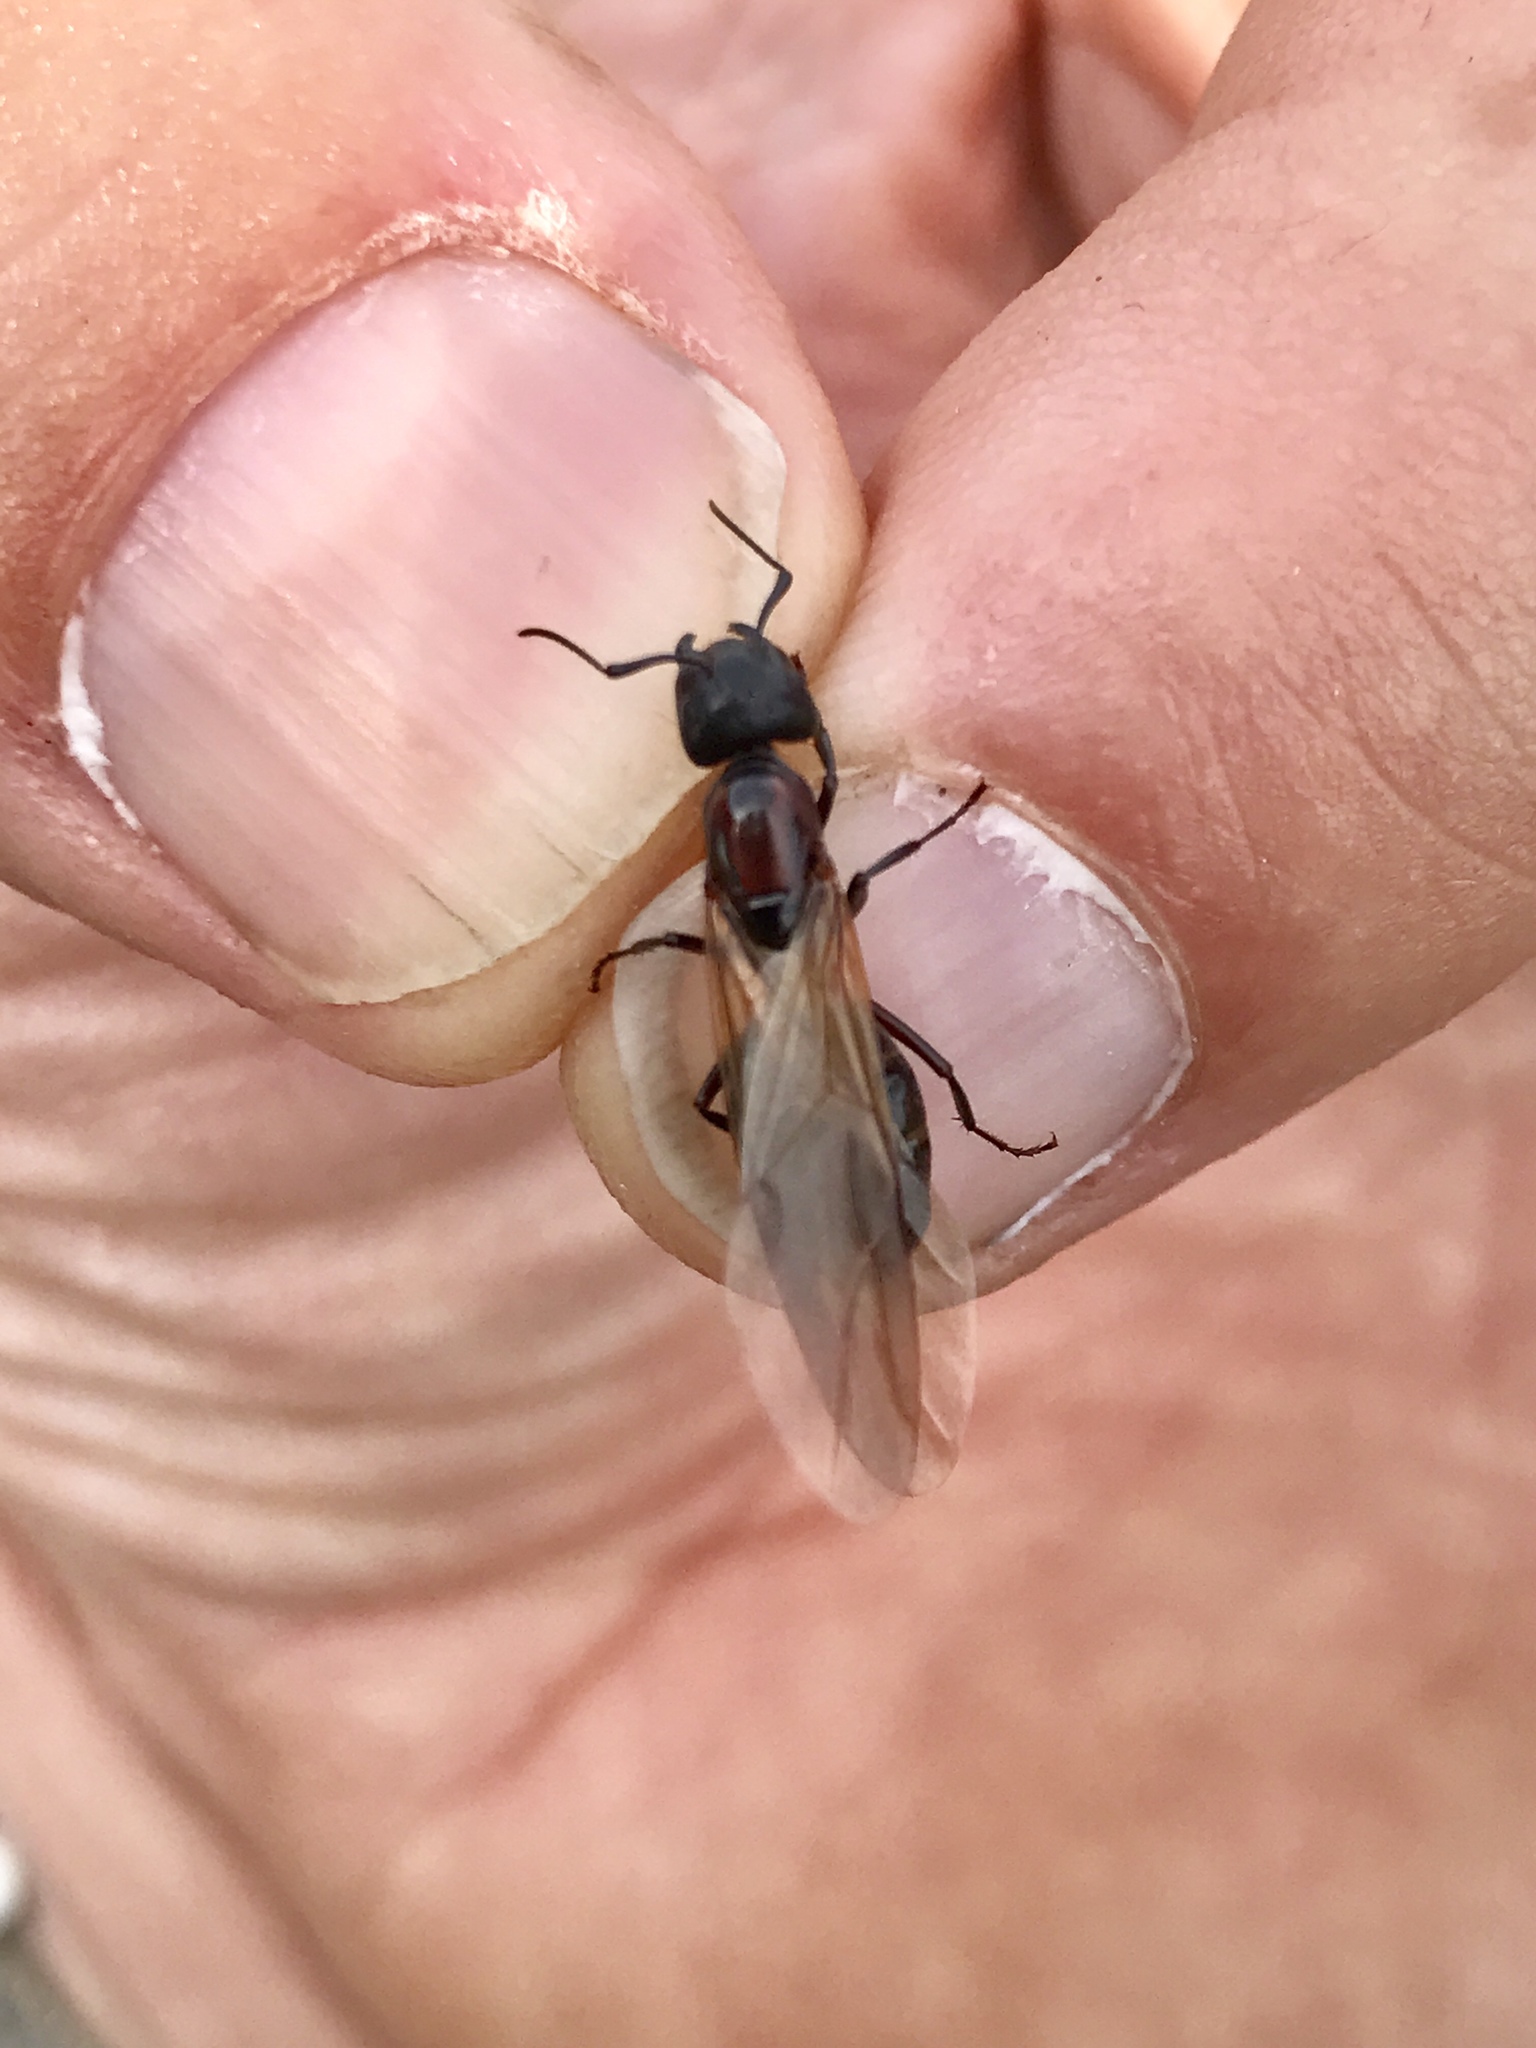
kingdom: Animalia
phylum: Arthropoda
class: Insecta
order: Hymenoptera
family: Formicidae
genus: Camponotus
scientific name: Camponotus novaeboracensis
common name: New york carpenter ant
